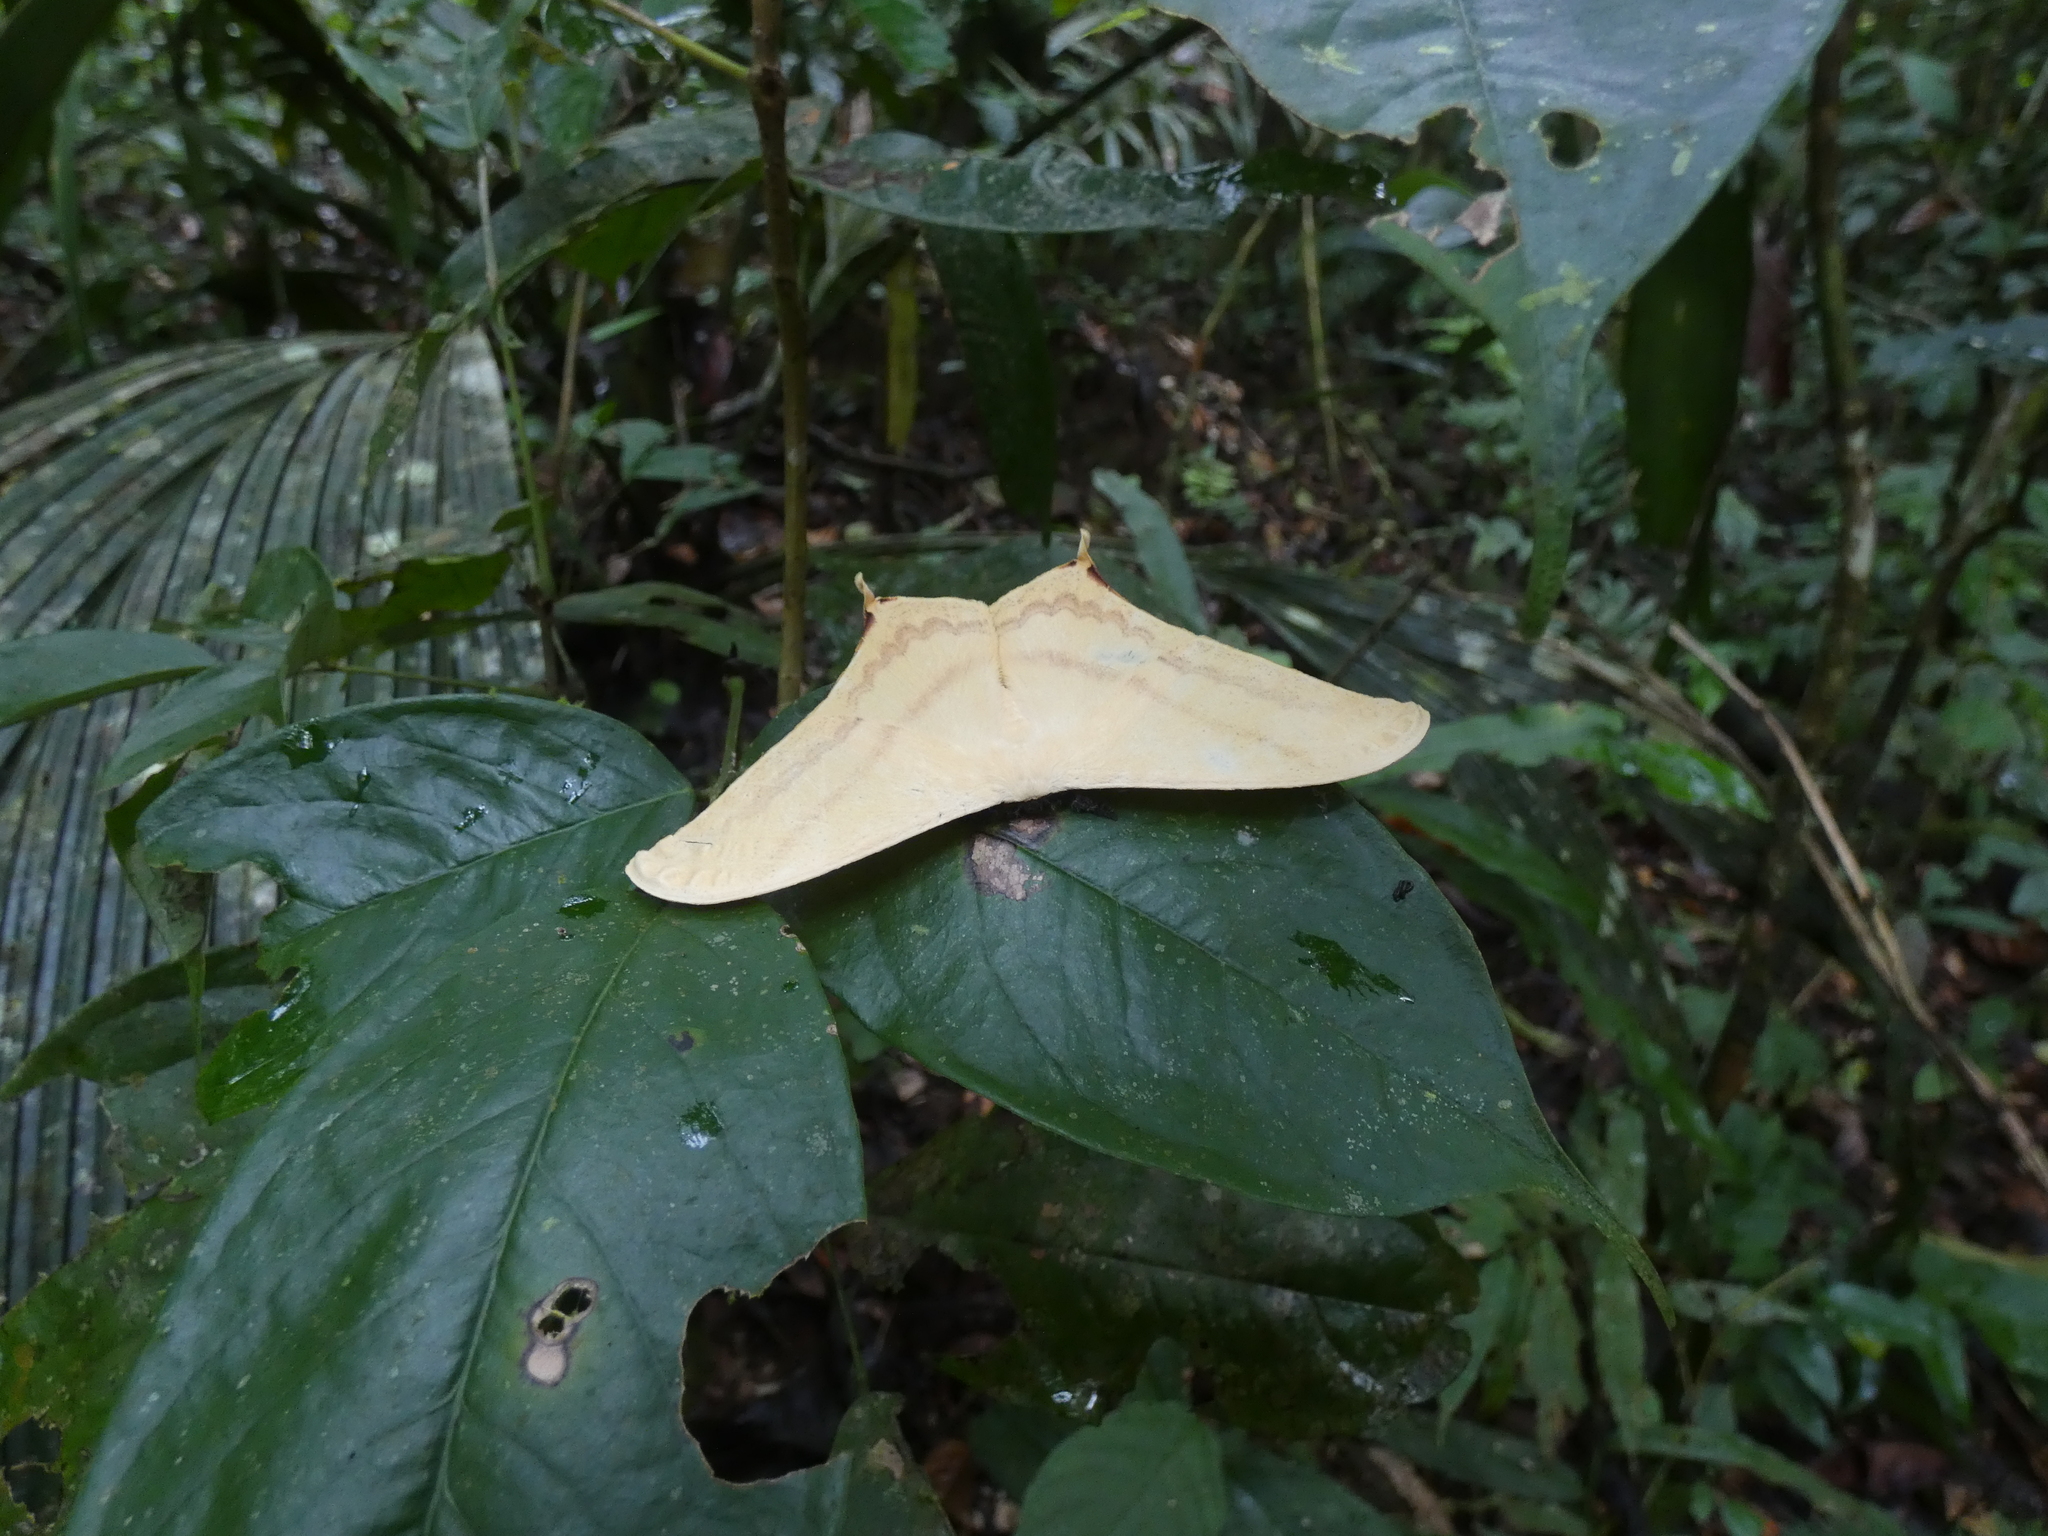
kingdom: Animalia
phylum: Arthropoda
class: Insecta
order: Lepidoptera
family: Saturniidae
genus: Therinia
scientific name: Therinia buckleyi
